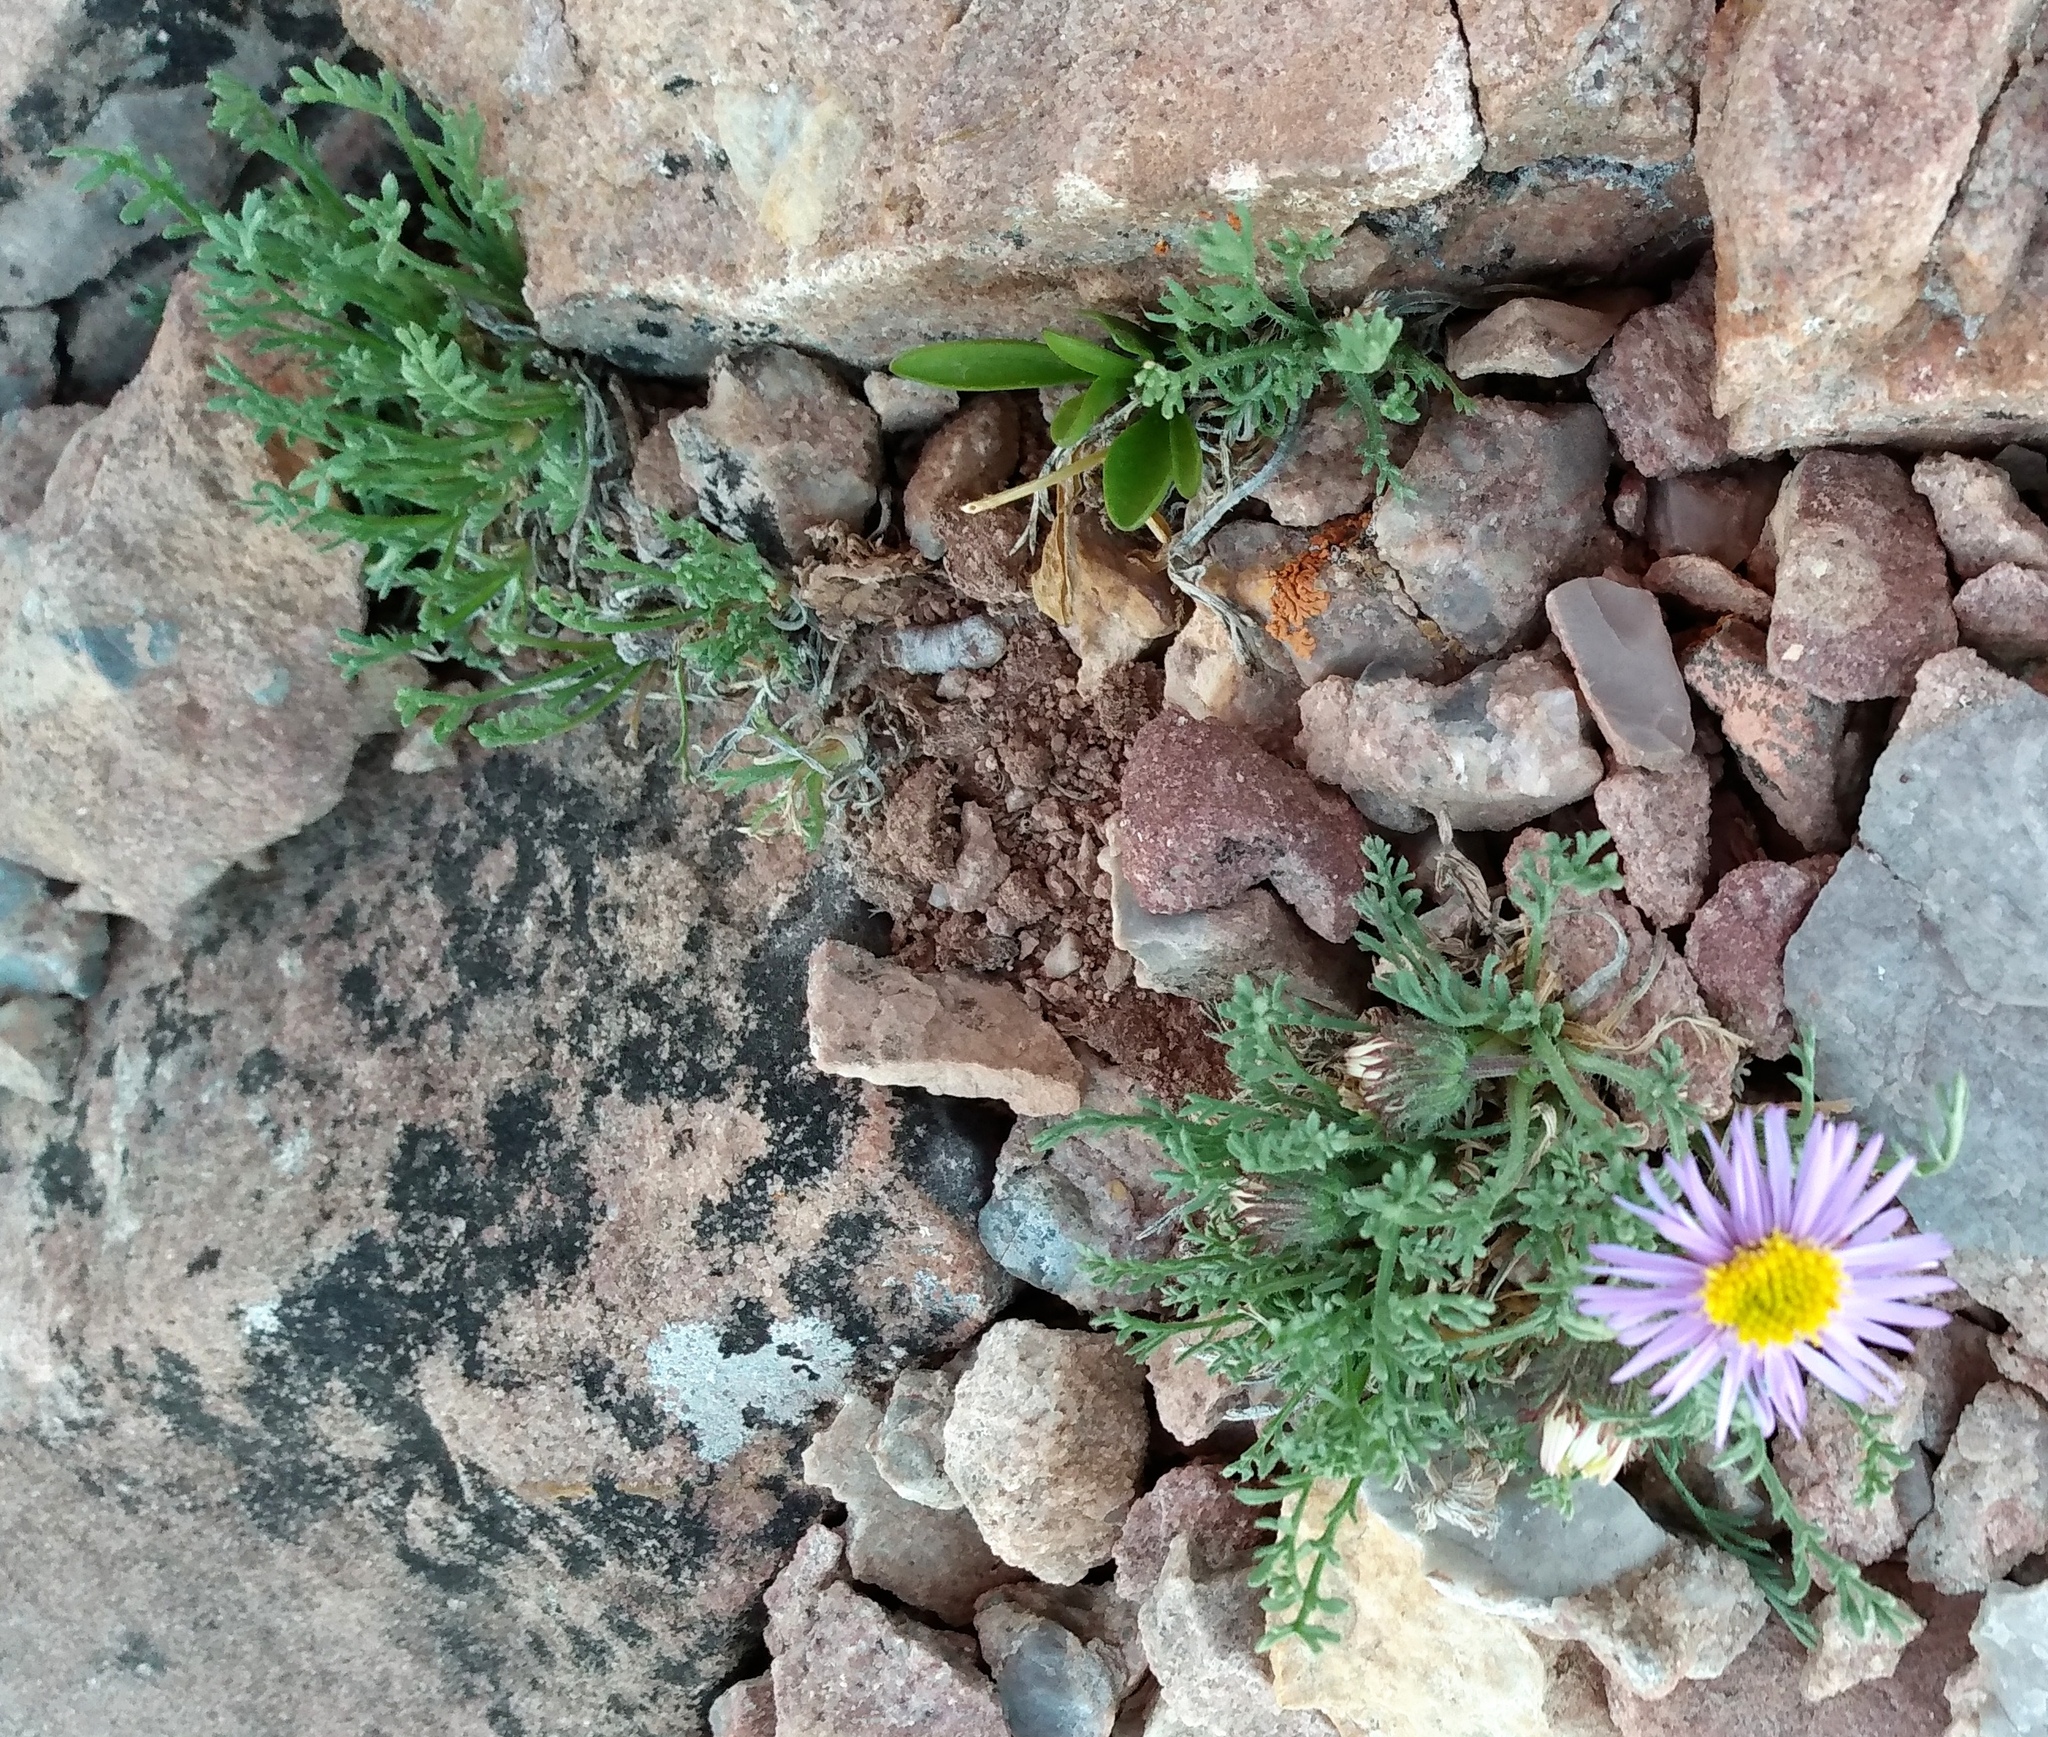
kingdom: Plantae
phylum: Tracheophyta
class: Magnoliopsida
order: Asterales
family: Asteraceae
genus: Erigeron
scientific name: Erigeron pinnatisectus
